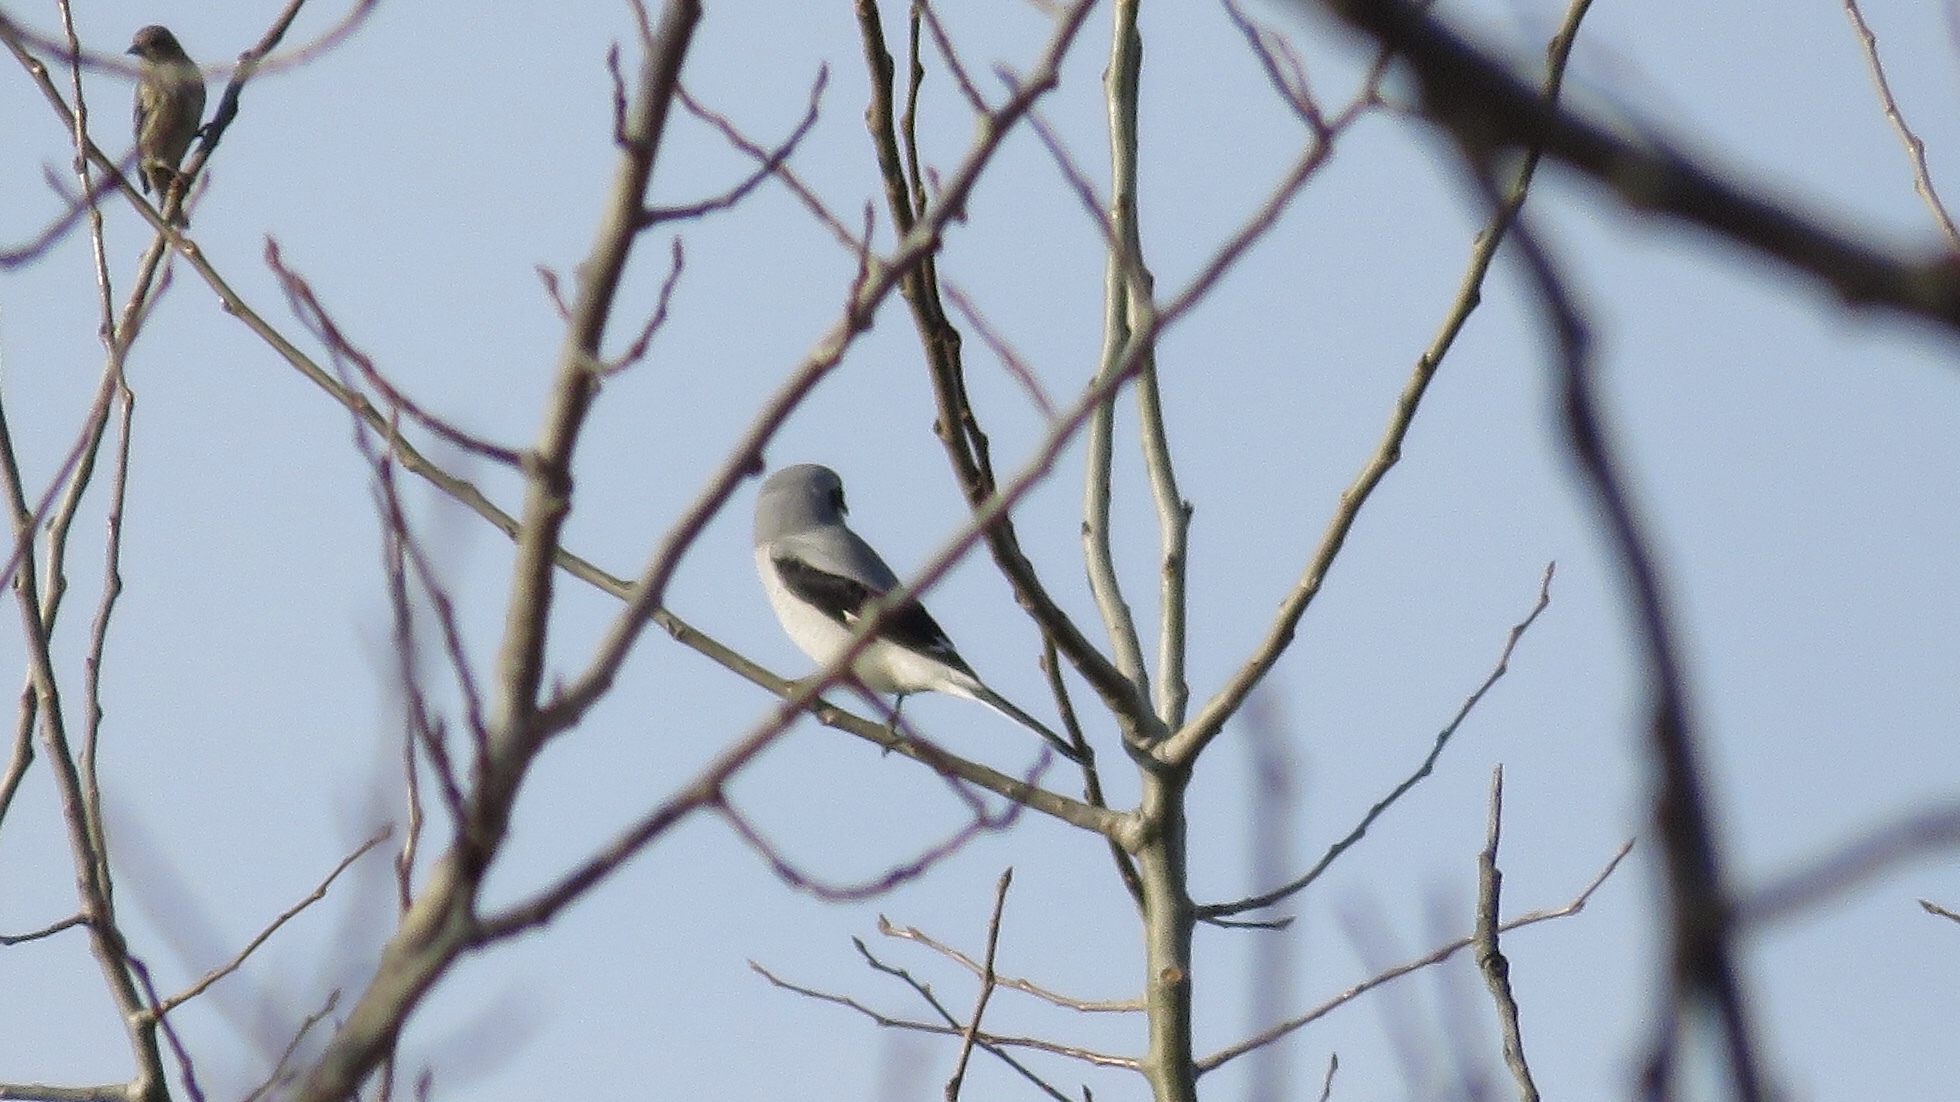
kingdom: Animalia
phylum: Chordata
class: Aves
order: Passeriformes
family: Laniidae
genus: Lanius
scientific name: Lanius borealis
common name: Northern shrike
